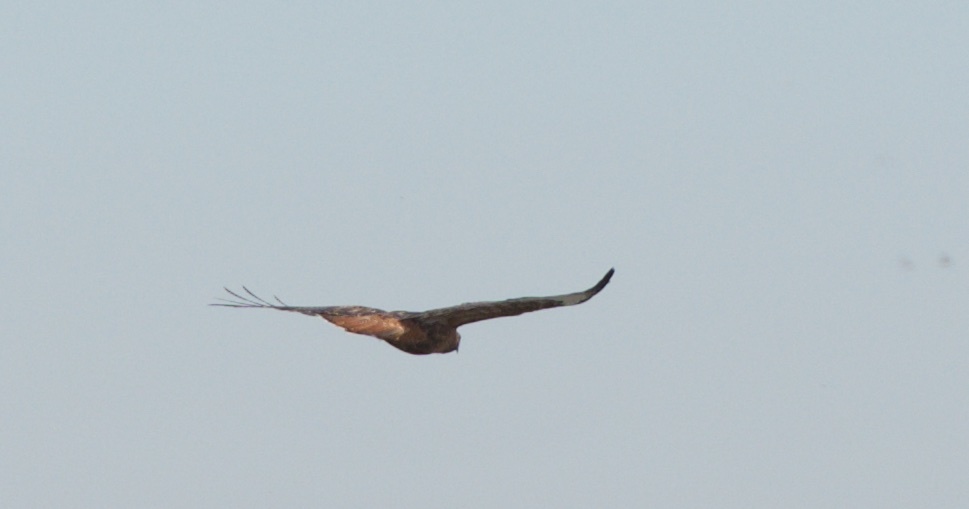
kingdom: Animalia
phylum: Chordata
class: Aves
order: Accipitriformes
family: Accipitridae
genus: Buteo
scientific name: Buteo jamaicensis
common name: Red-tailed hawk
